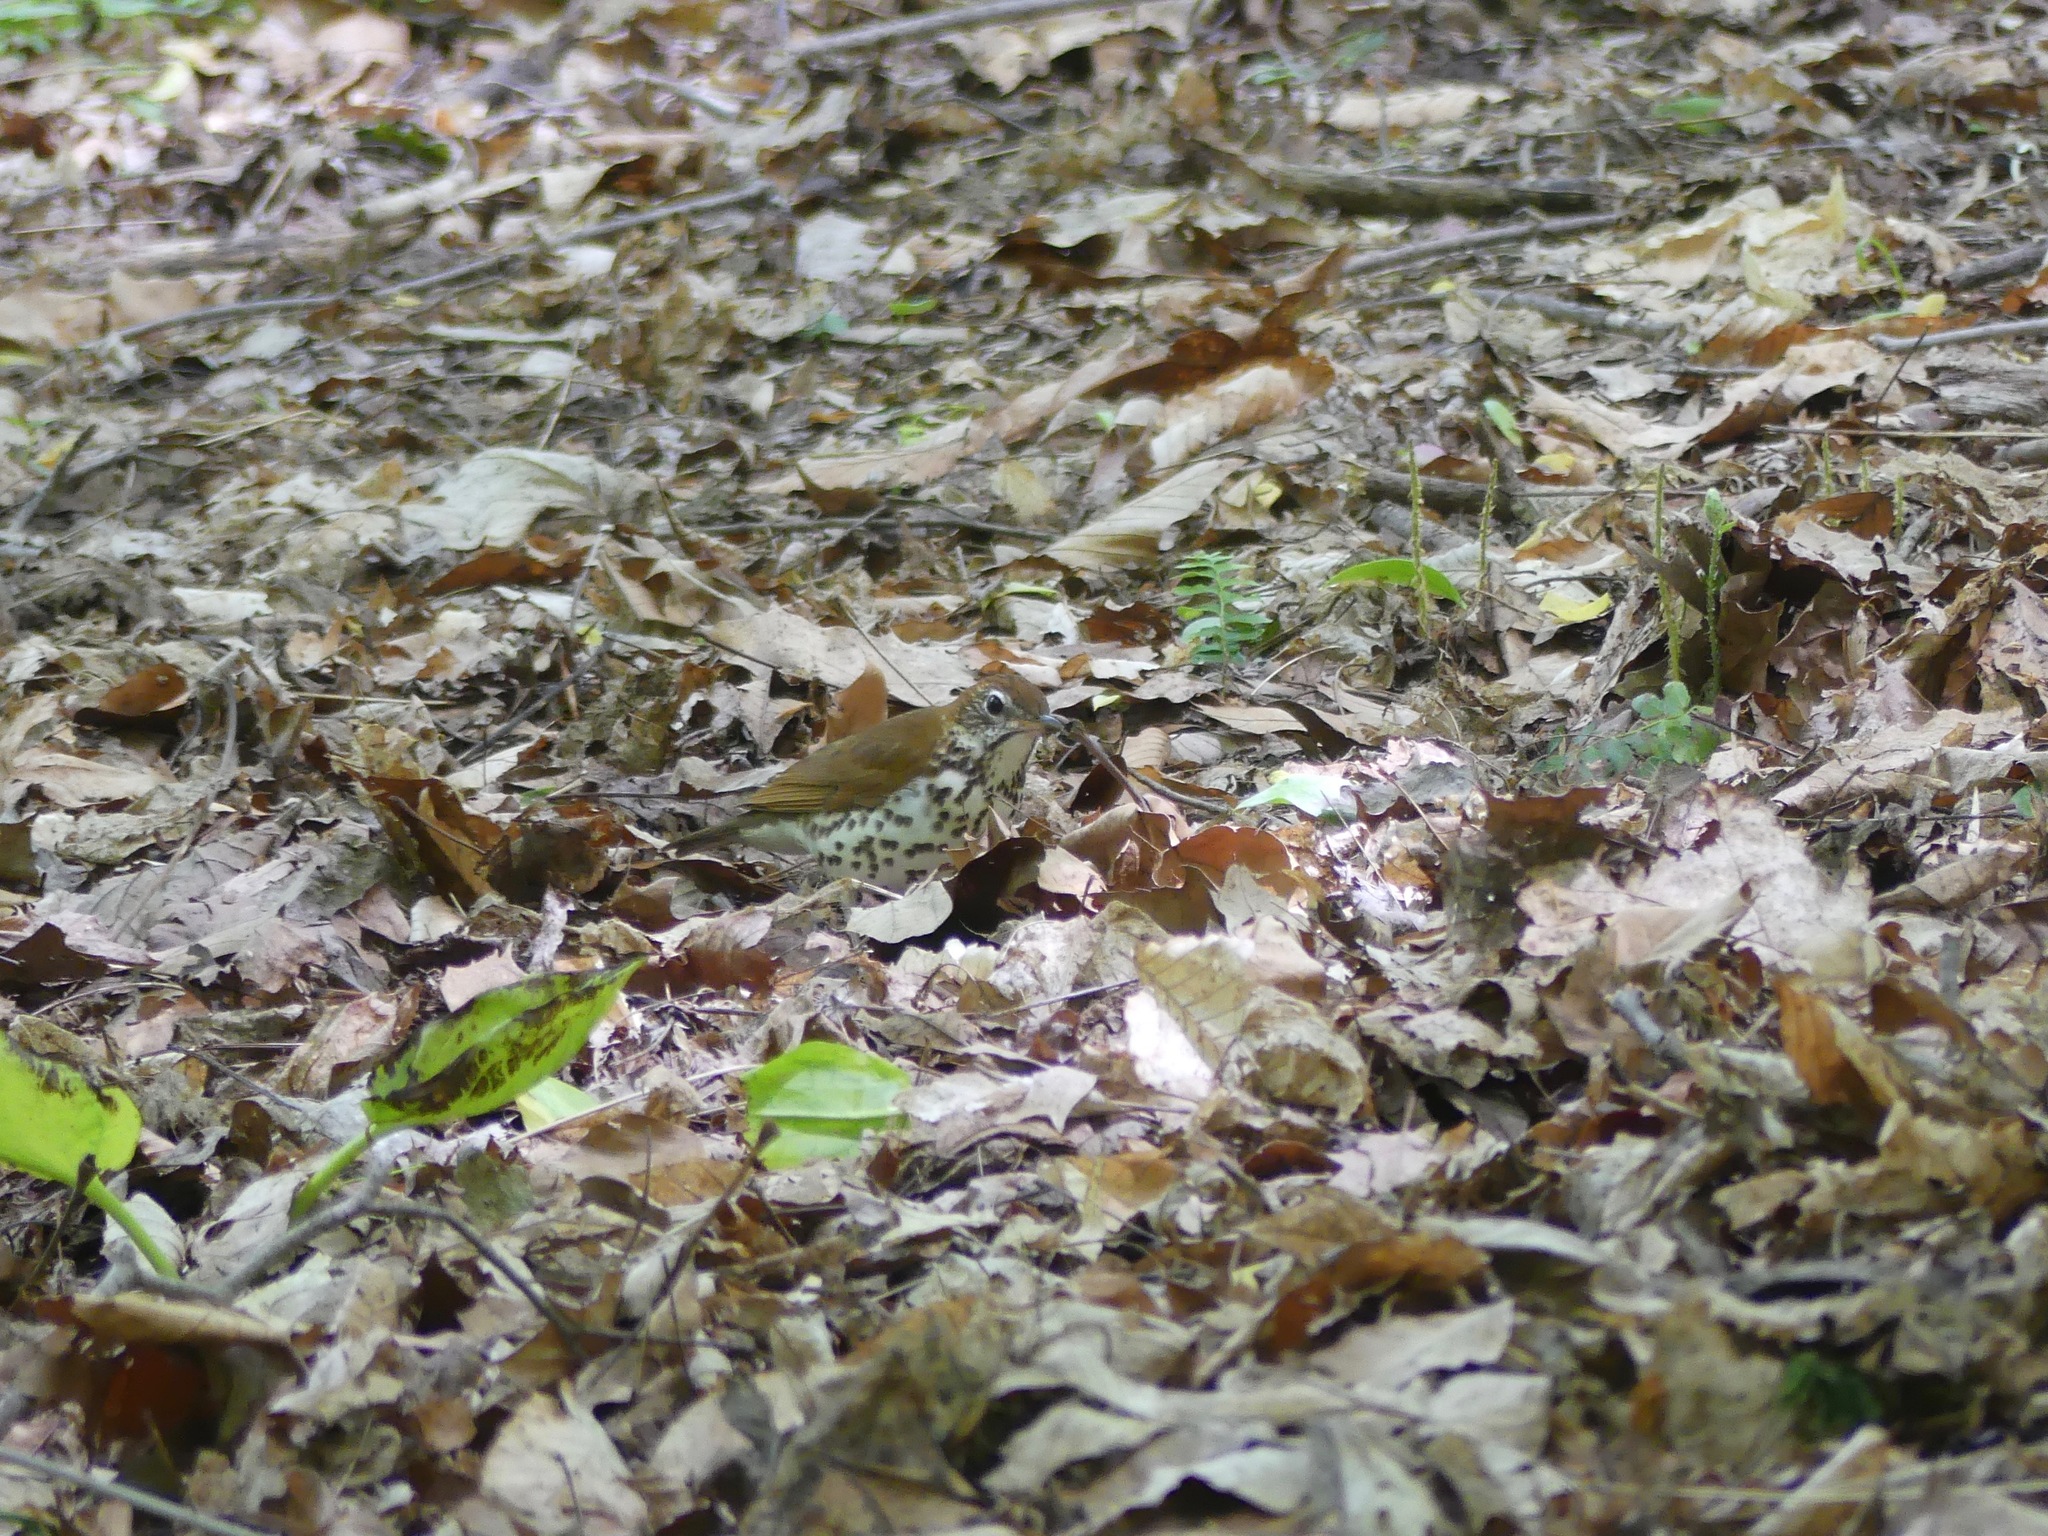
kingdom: Animalia
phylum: Chordata
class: Aves
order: Passeriformes
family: Turdidae
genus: Hylocichla
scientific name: Hylocichla mustelina
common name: Wood thrush
